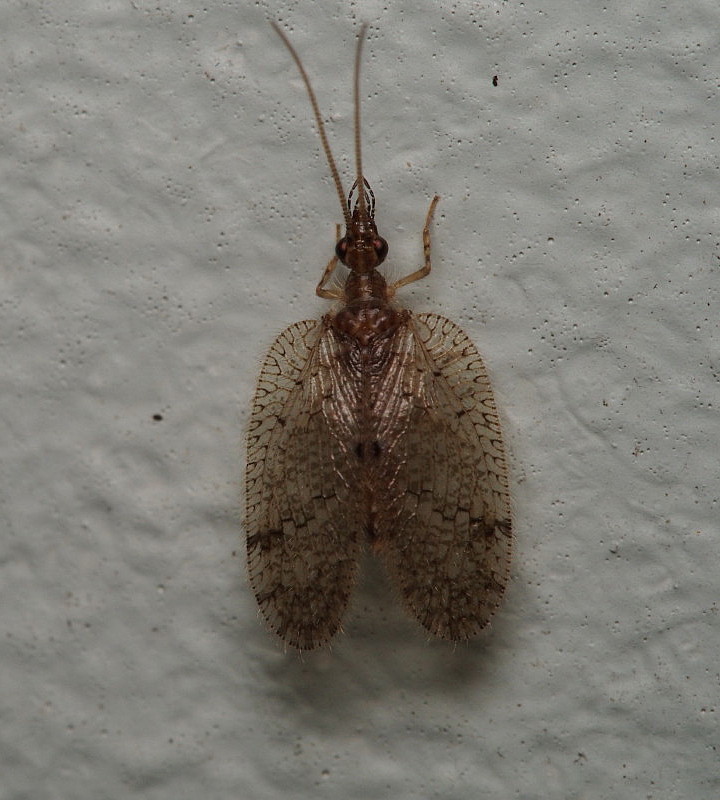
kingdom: Animalia
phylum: Arthropoda
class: Insecta
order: Neuroptera
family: Hemerobiidae
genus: Psectra
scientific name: Psectra nakaharai
